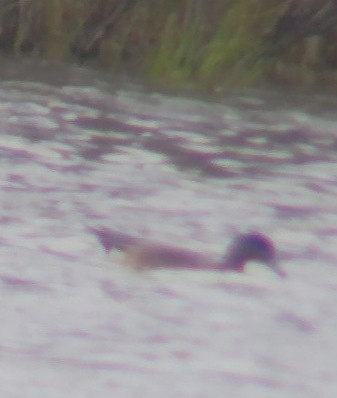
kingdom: Animalia
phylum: Chordata
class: Aves
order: Anseriformes
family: Anatidae
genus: Mareca
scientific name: Mareca americana
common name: American wigeon
